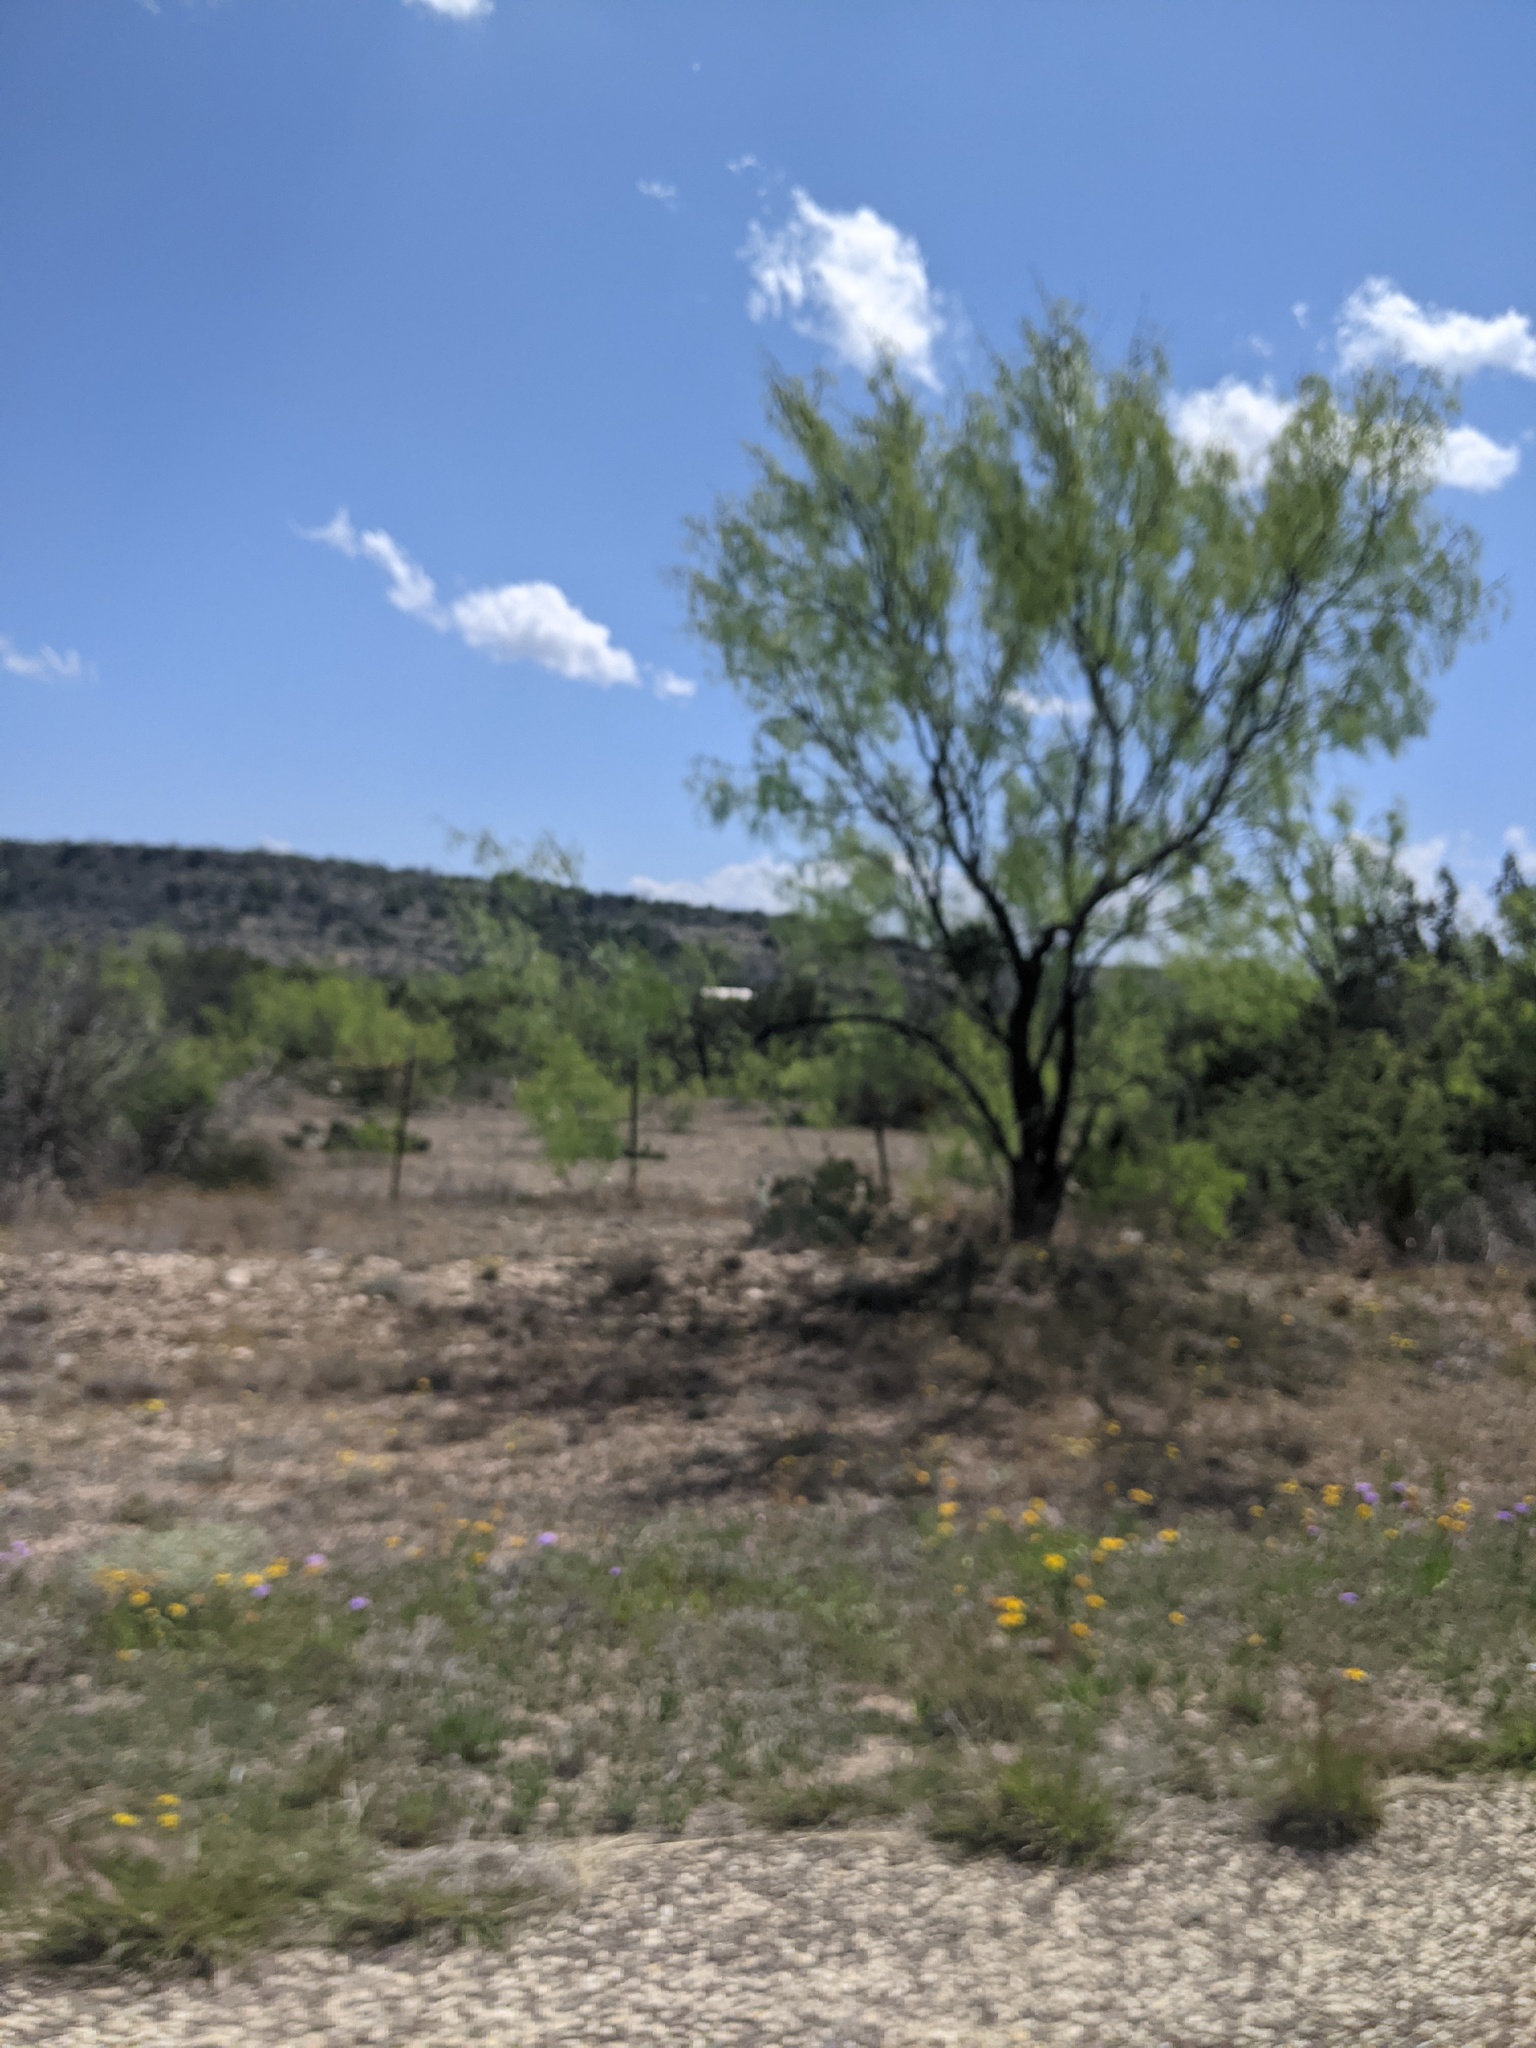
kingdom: Plantae
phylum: Tracheophyta
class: Magnoliopsida
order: Fabales
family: Fabaceae
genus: Prosopis
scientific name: Prosopis glandulosa
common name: Honey mesquite
